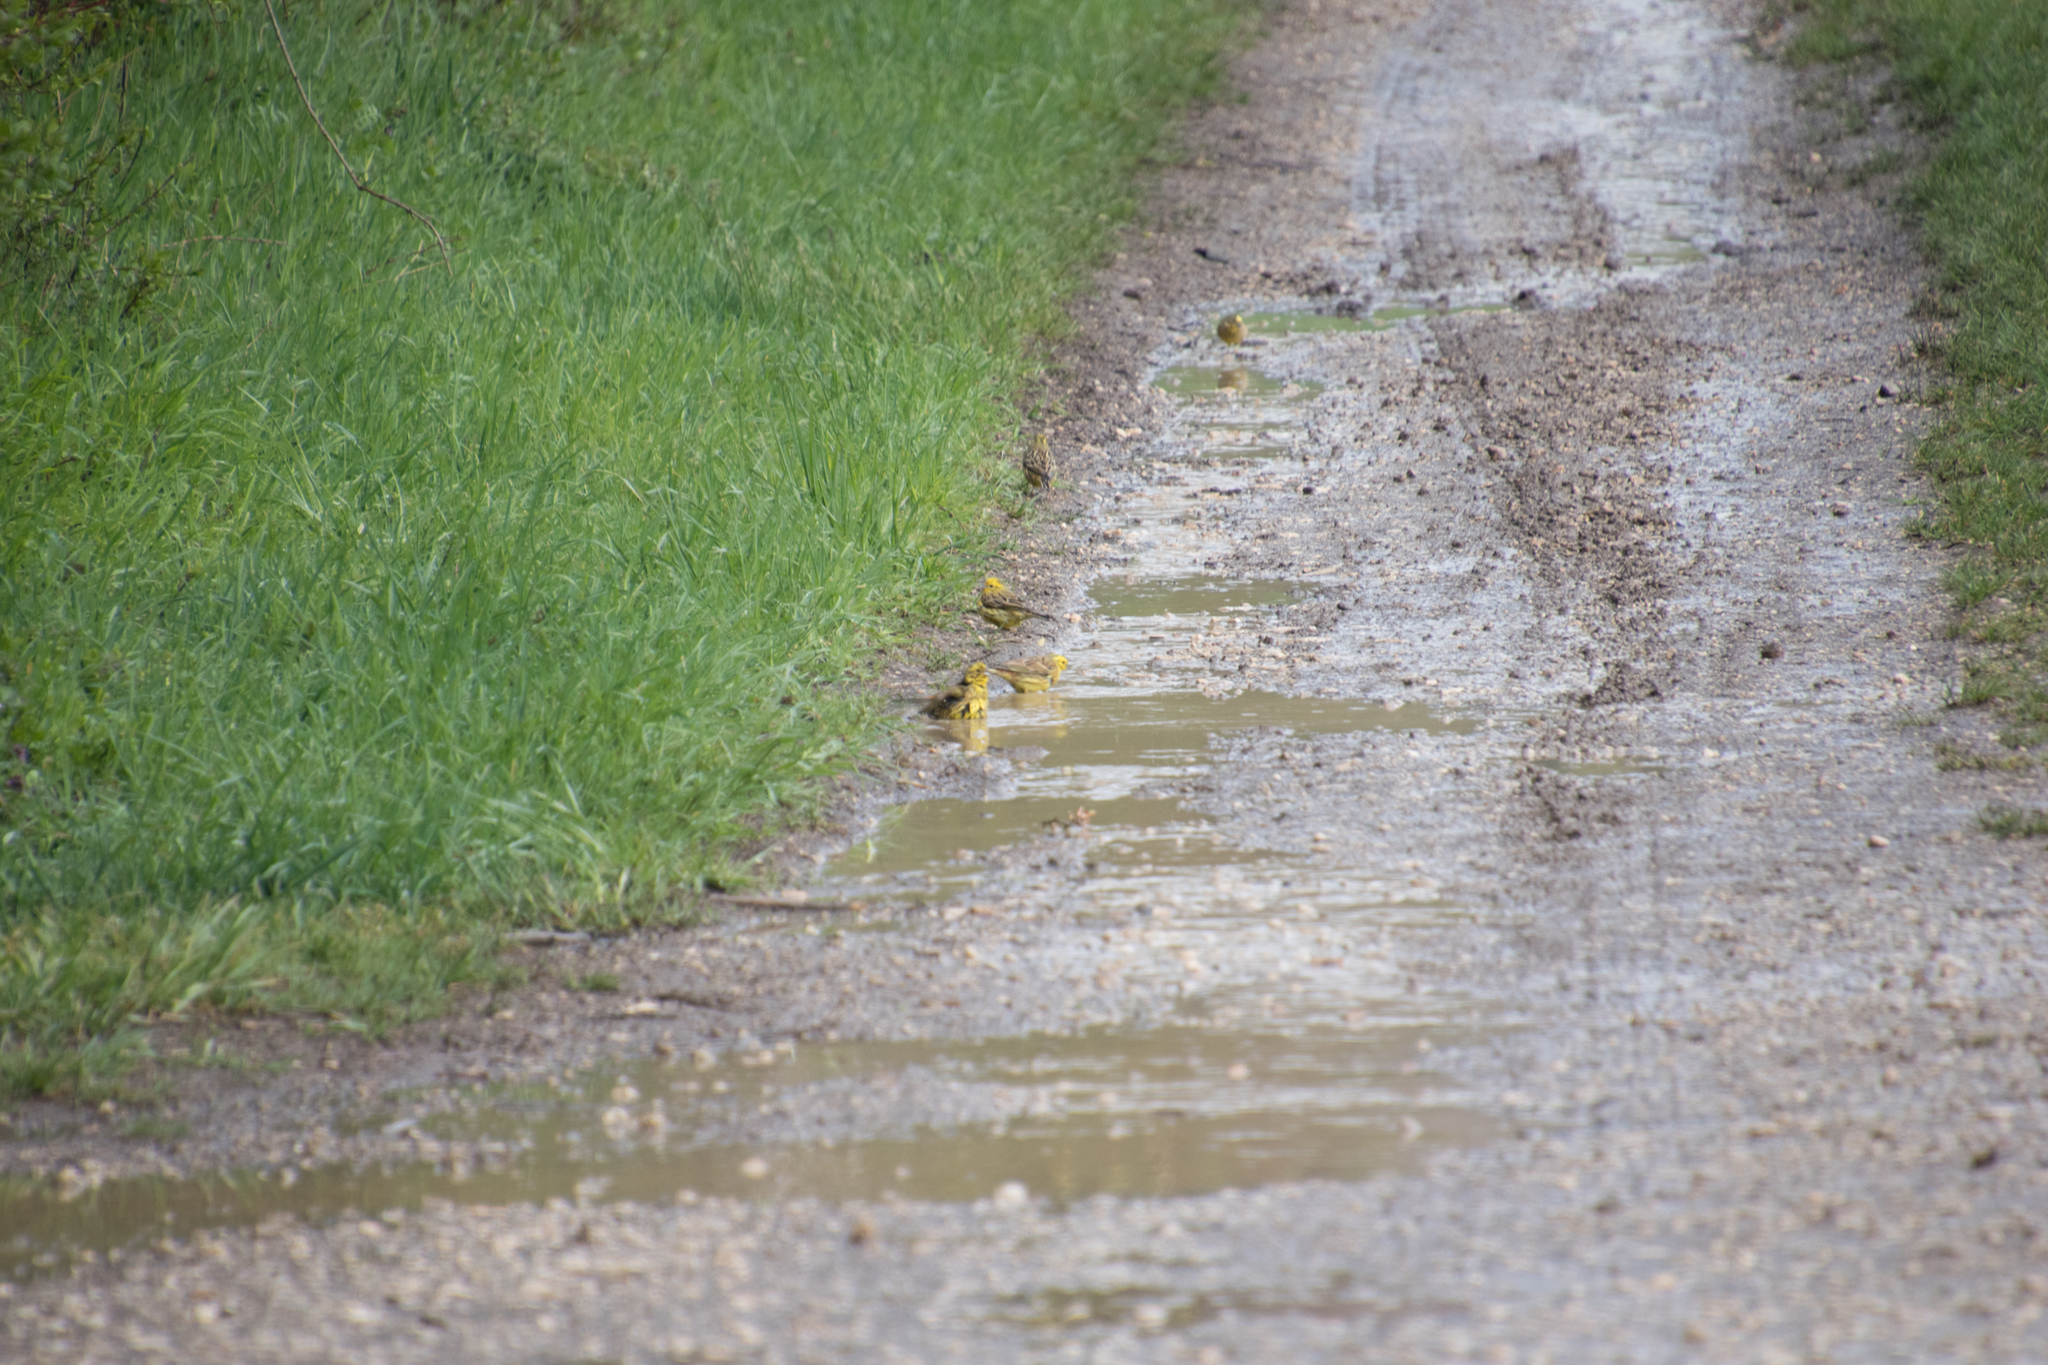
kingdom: Animalia
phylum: Chordata
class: Aves
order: Passeriformes
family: Emberizidae
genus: Emberiza
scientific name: Emberiza citrinella
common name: Yellowhammer
